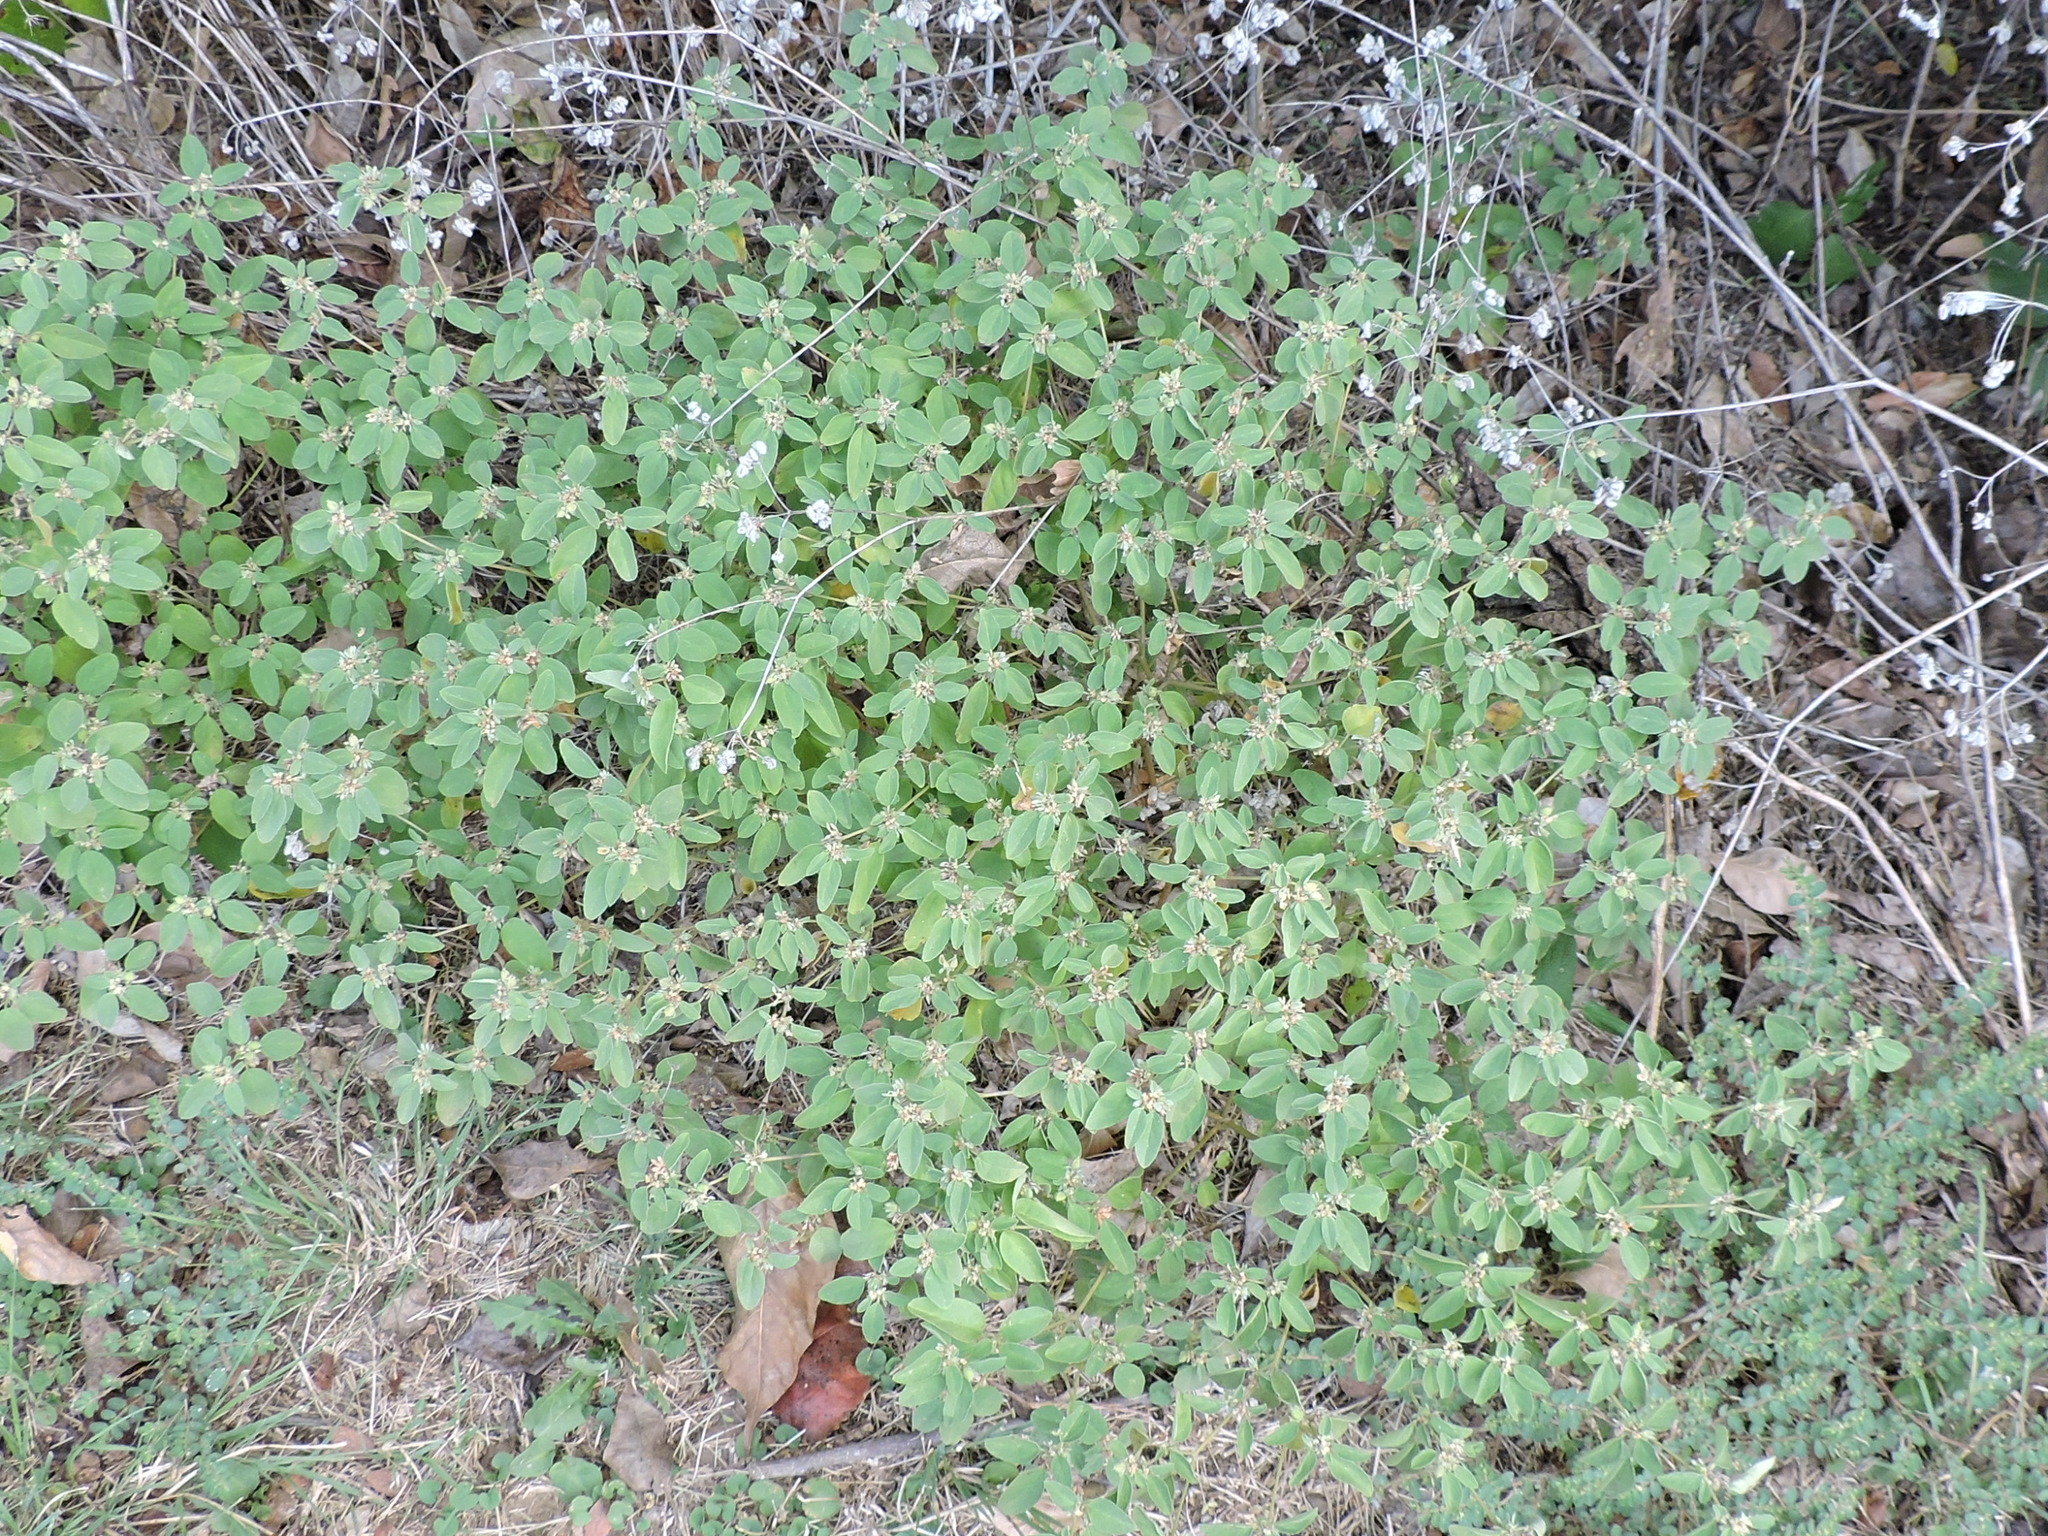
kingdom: Plantae
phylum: Tracheophyta
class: Magnoliopsida
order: Malpighiales
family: Euphorbiaceae
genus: Croton
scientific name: Croton monanthogynus
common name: One-seed croton
